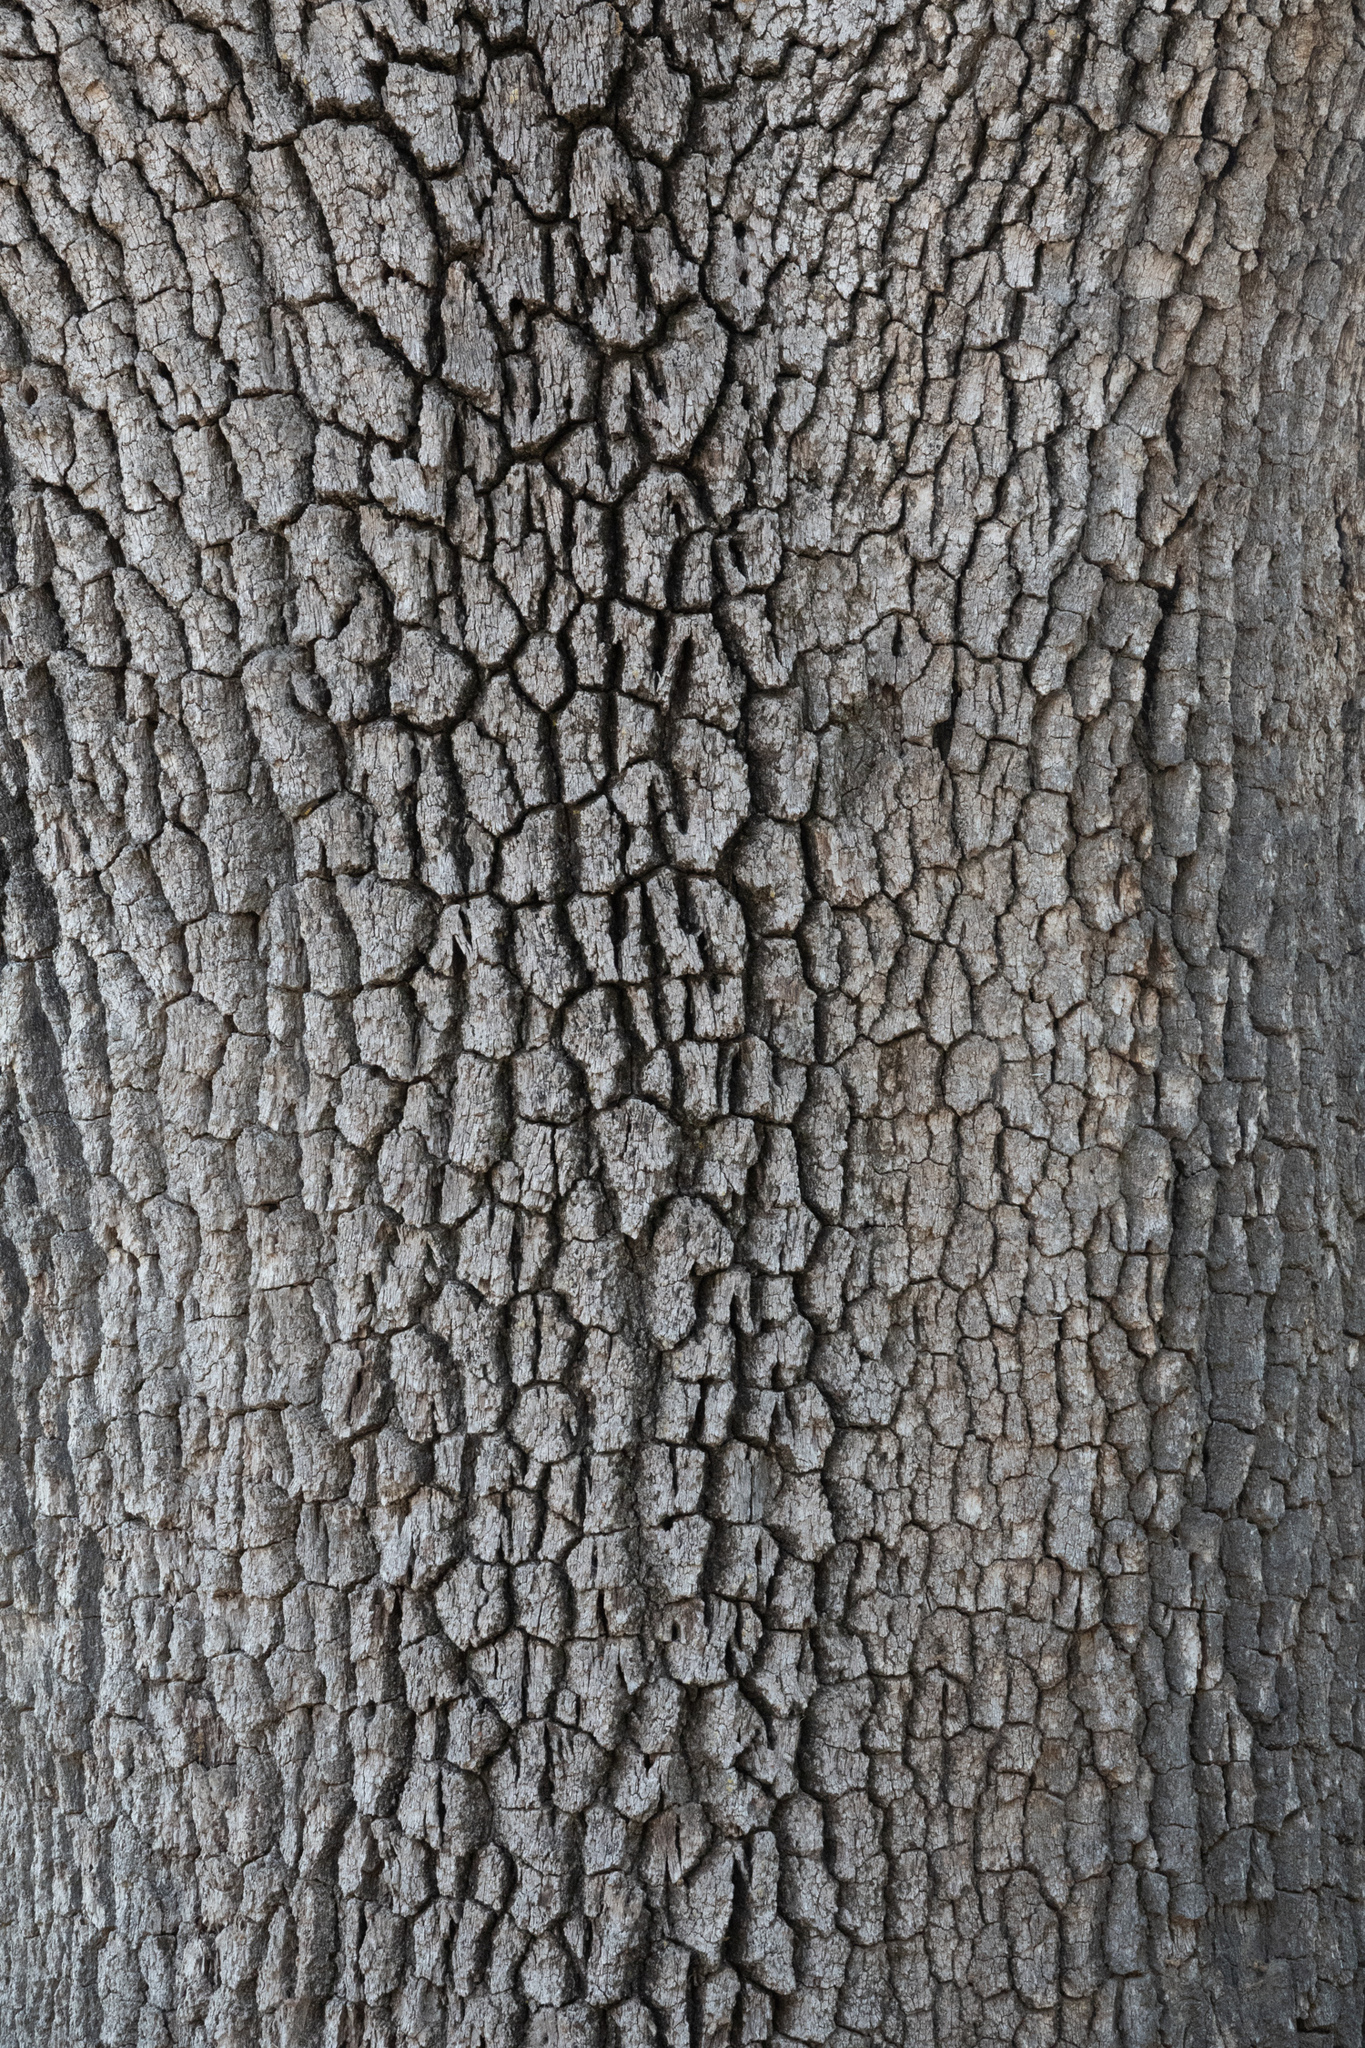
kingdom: Plantae
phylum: Tracheophyta
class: Magnoliopsida
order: Fagales
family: Fagaceae
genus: Quercus
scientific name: Quercus lobata
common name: Valley oak
